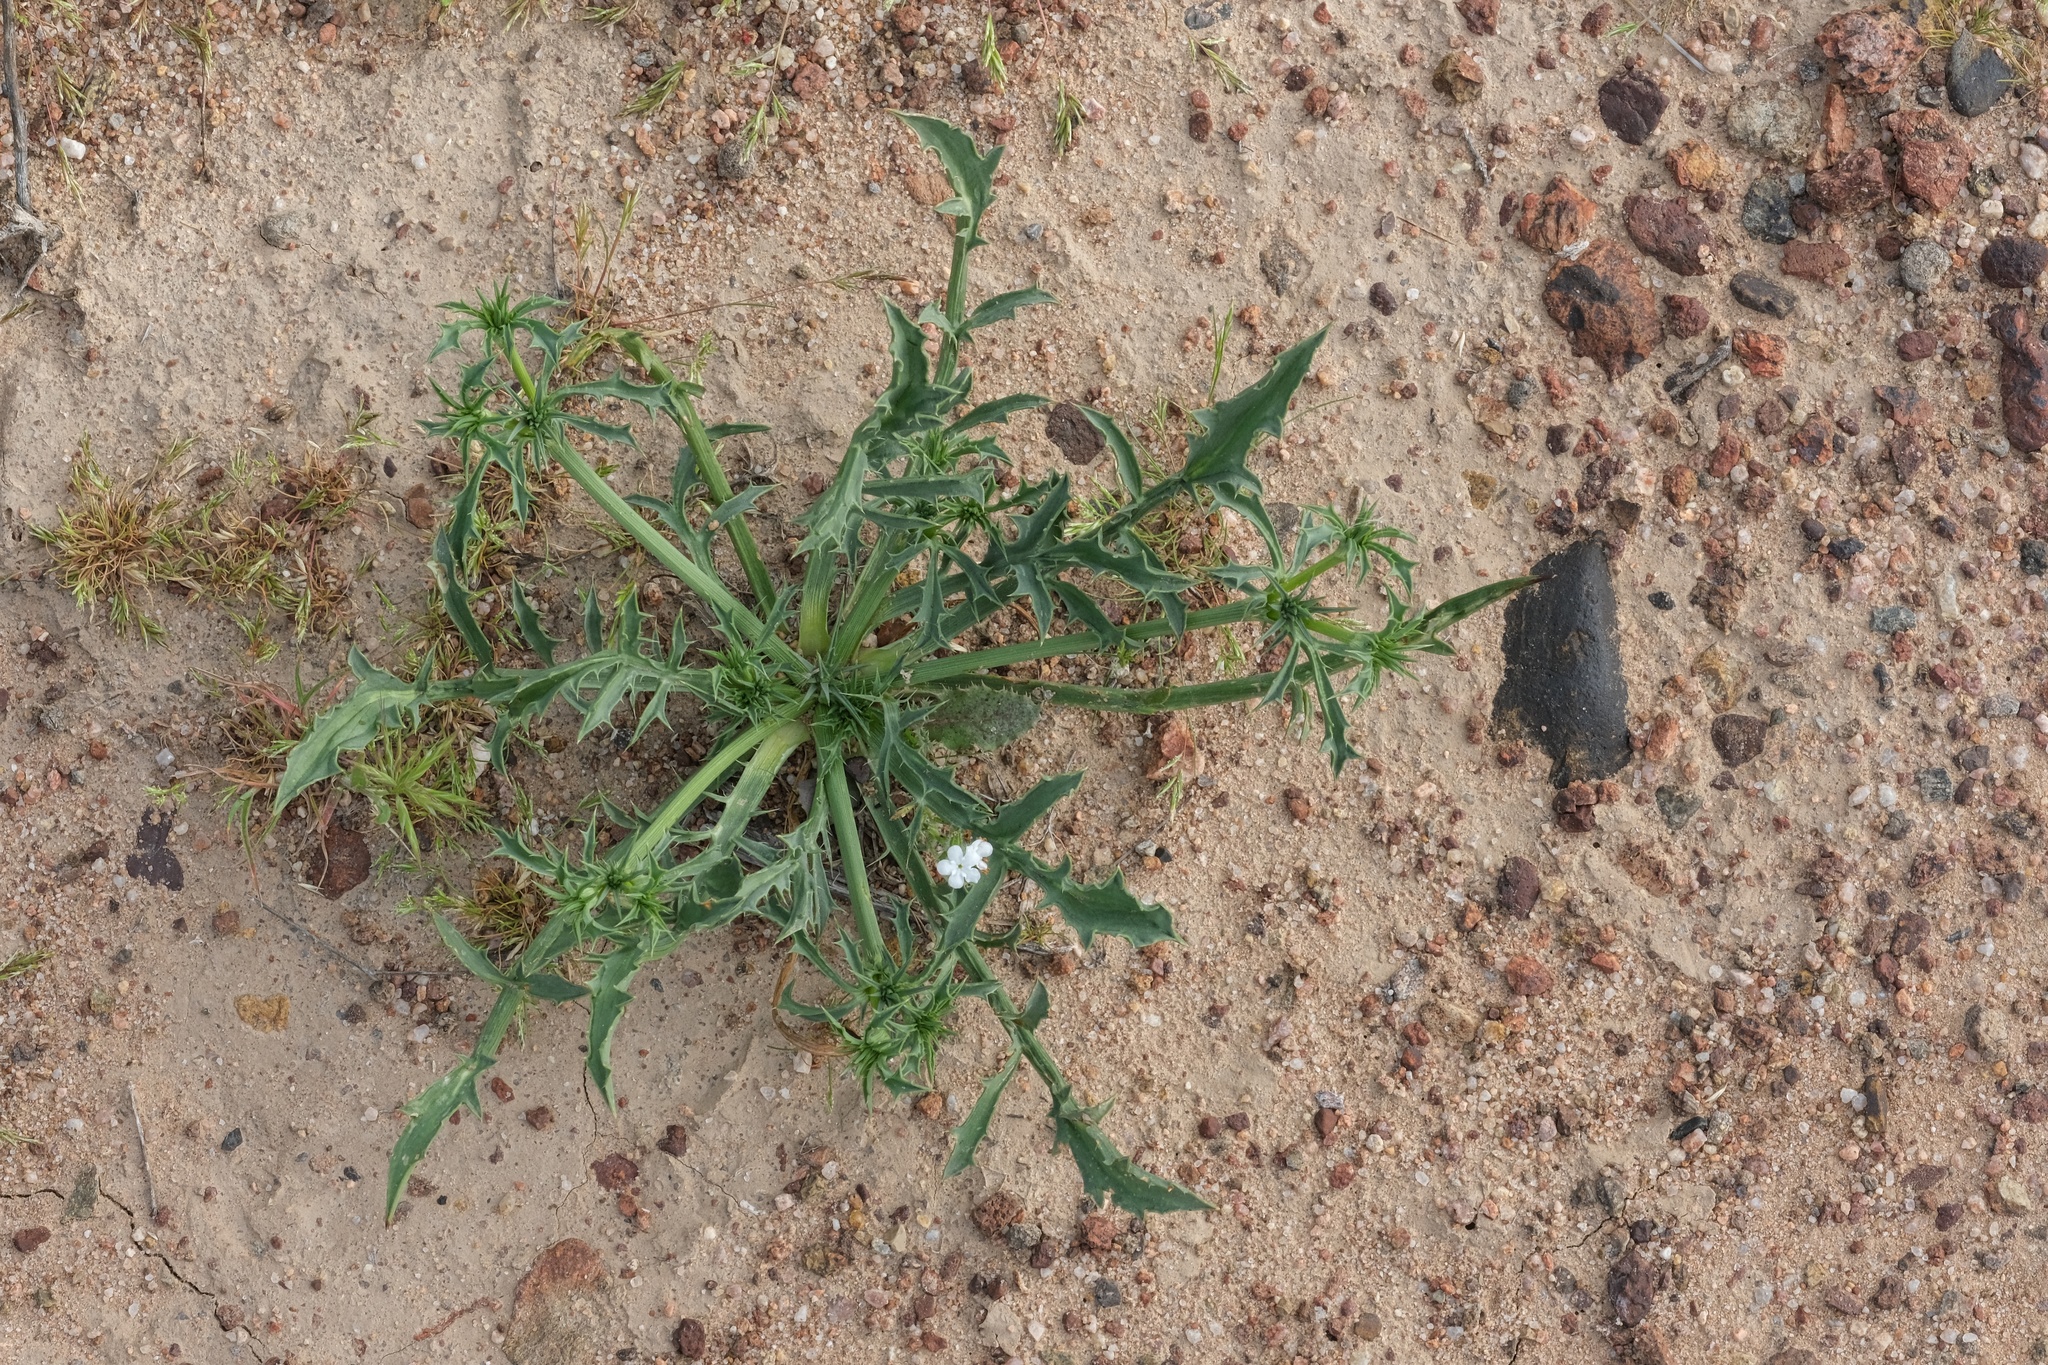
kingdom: Plantae
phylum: Tracheophyta
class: Magnoliopsida
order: Apiales
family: Apiaceae
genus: Eryngium
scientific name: Eryngium aristulatum
